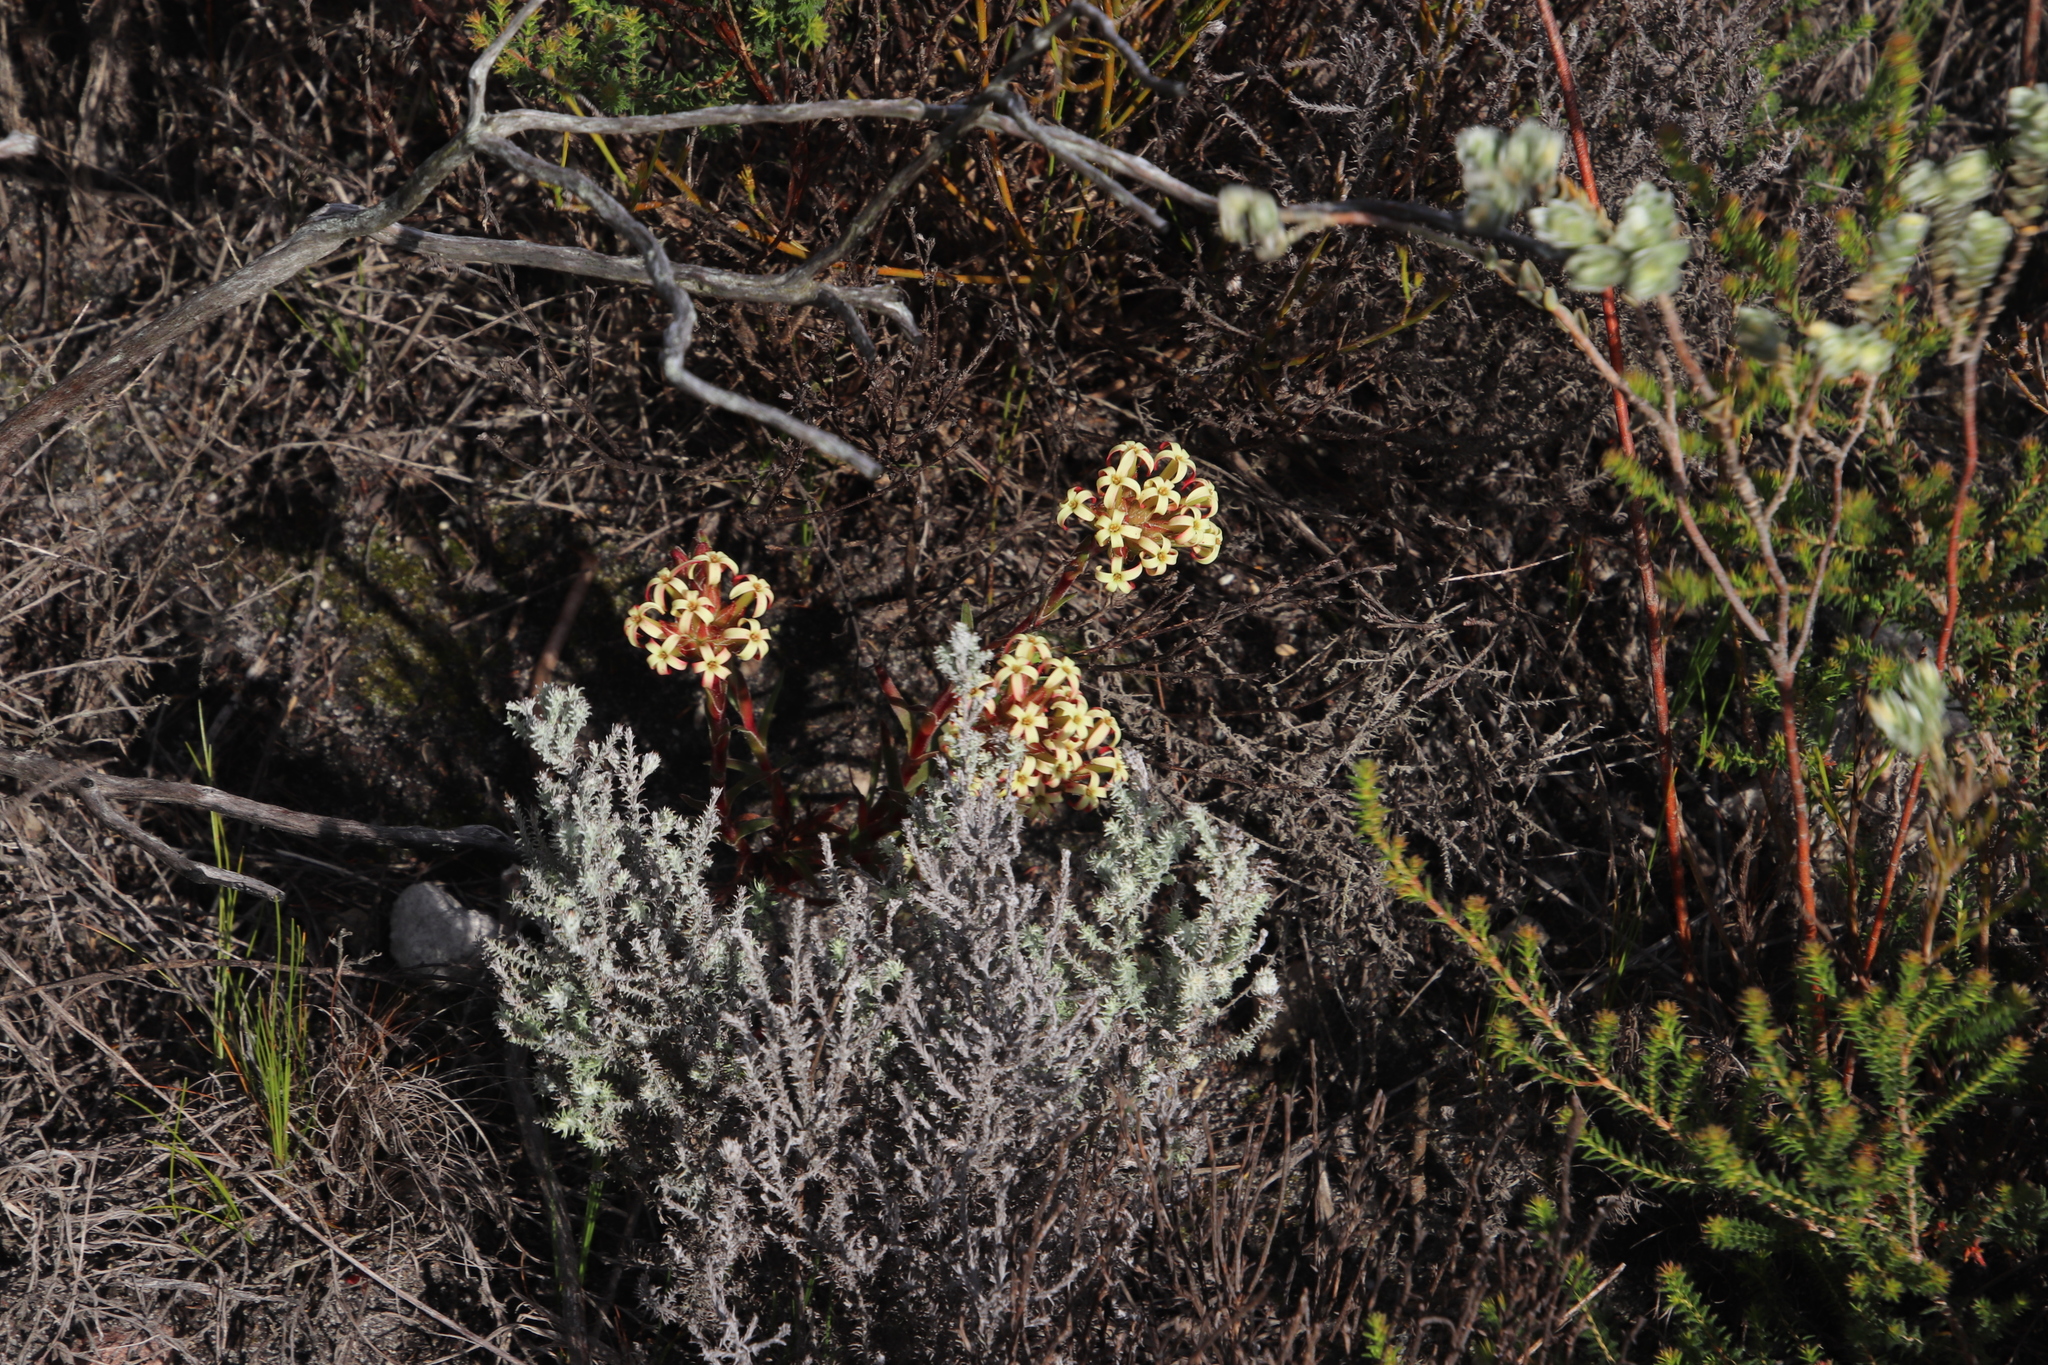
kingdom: Plantae
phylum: Tracheophyta
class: Magnoliopsida
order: Saxifragales
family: Crassulaceae
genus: Crassula
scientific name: Crassula fascicularis
